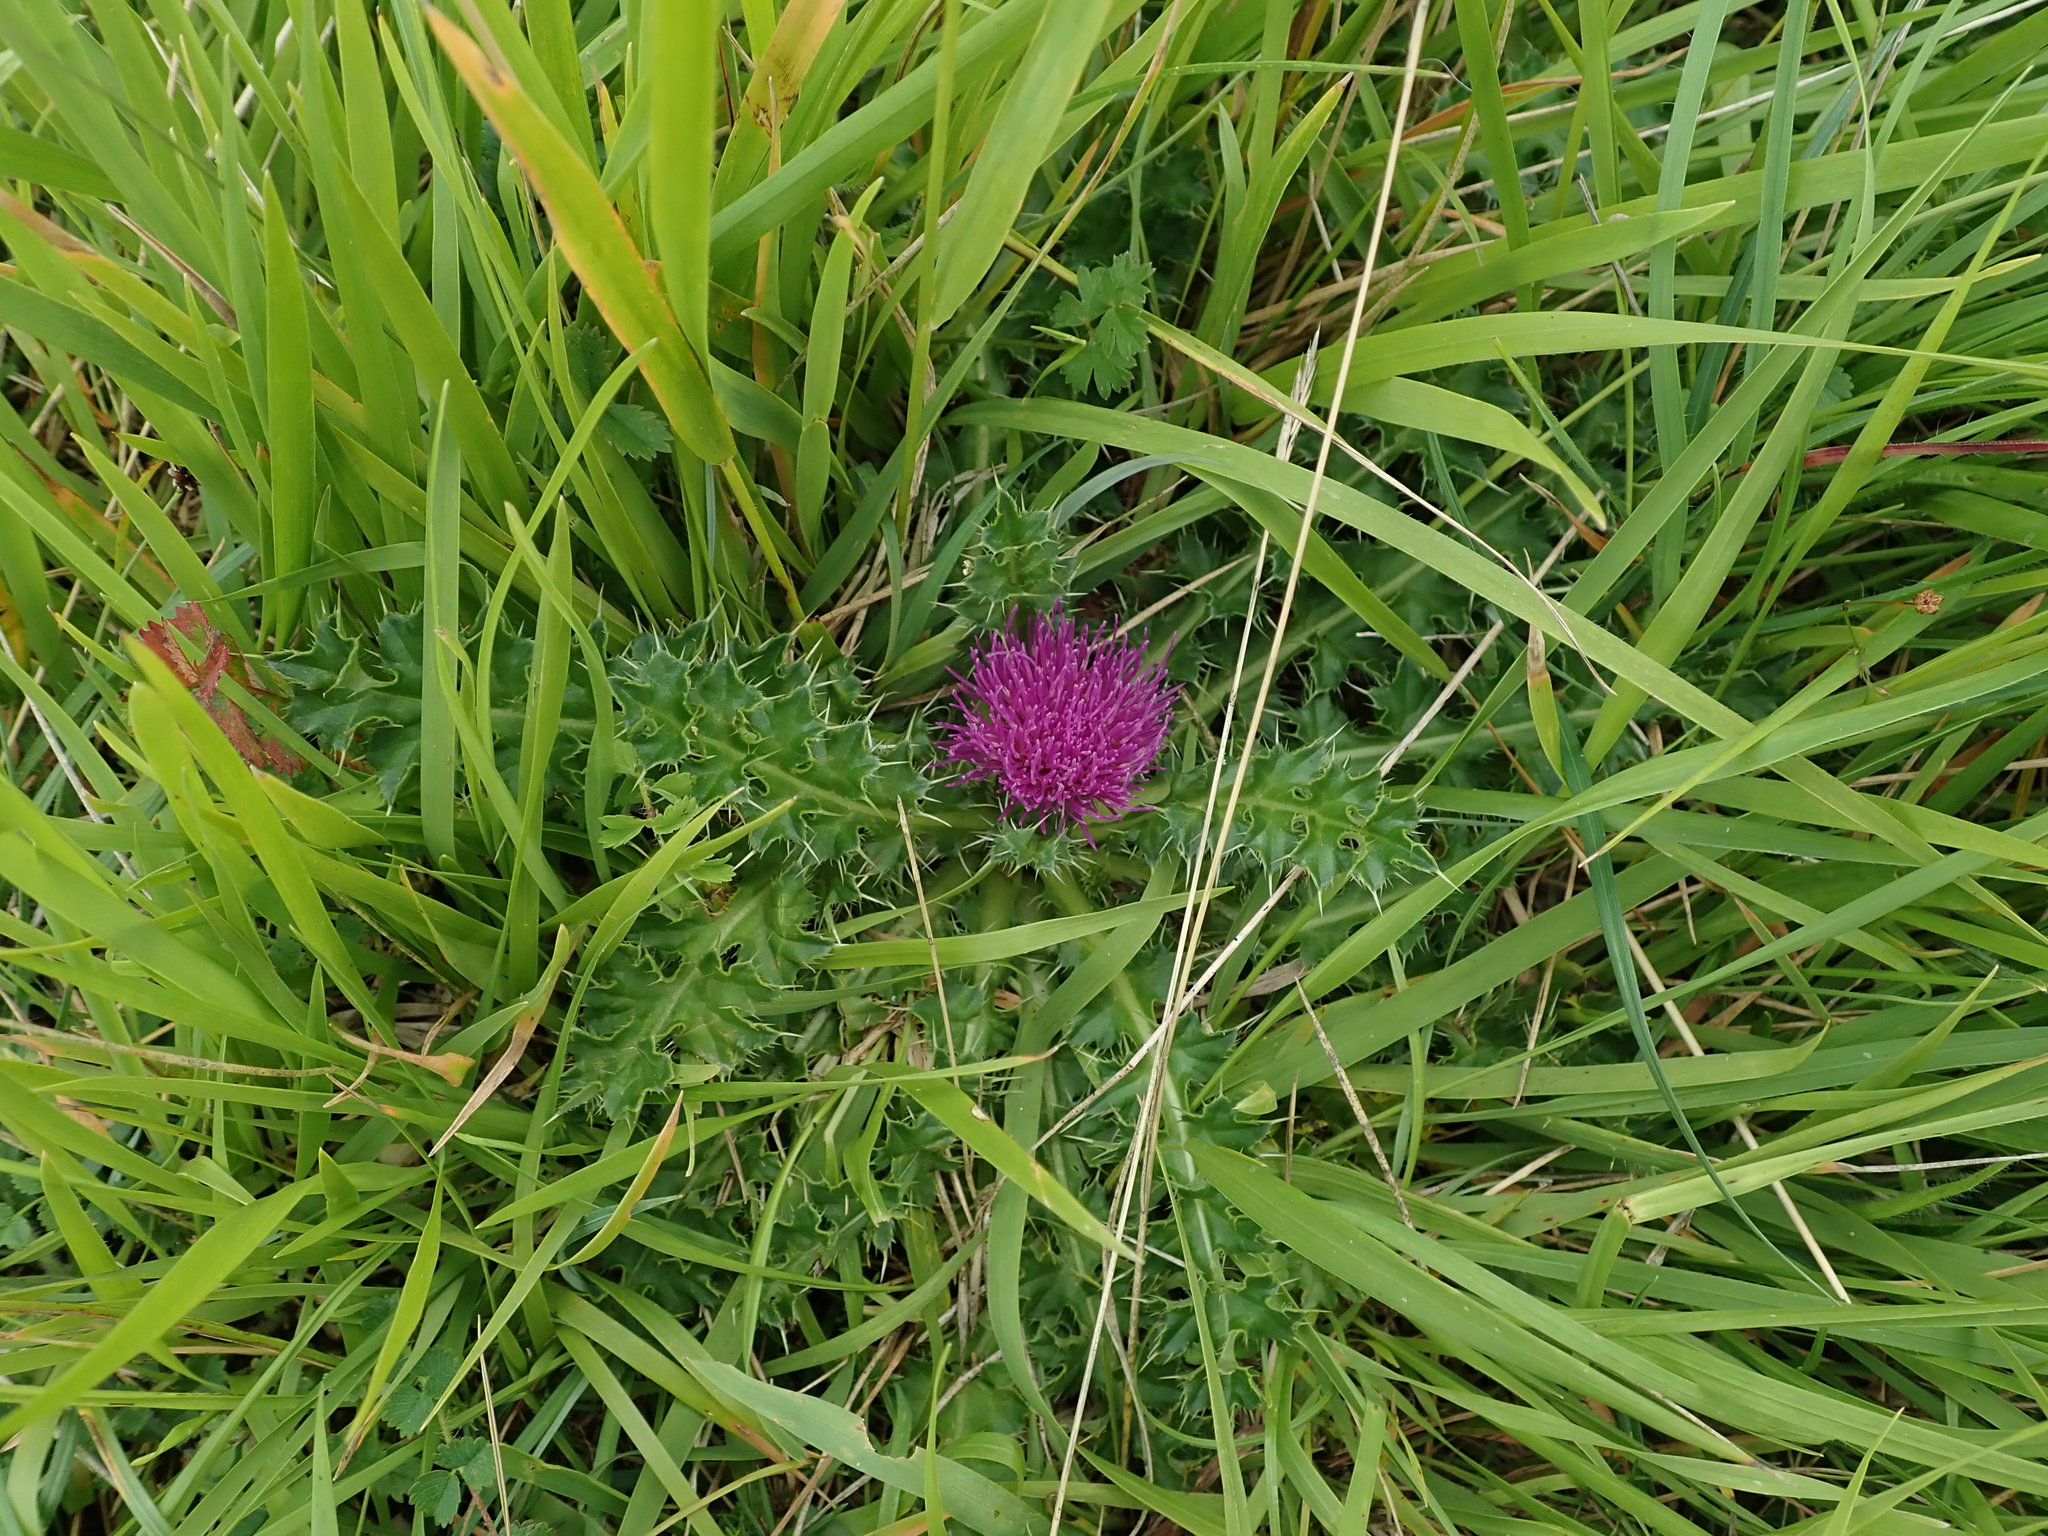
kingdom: Plantae
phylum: Tracheophyta
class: Magnoliopsida
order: Asterales
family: Asteraceae
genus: Cirsium
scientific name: Cirsium acaulon
